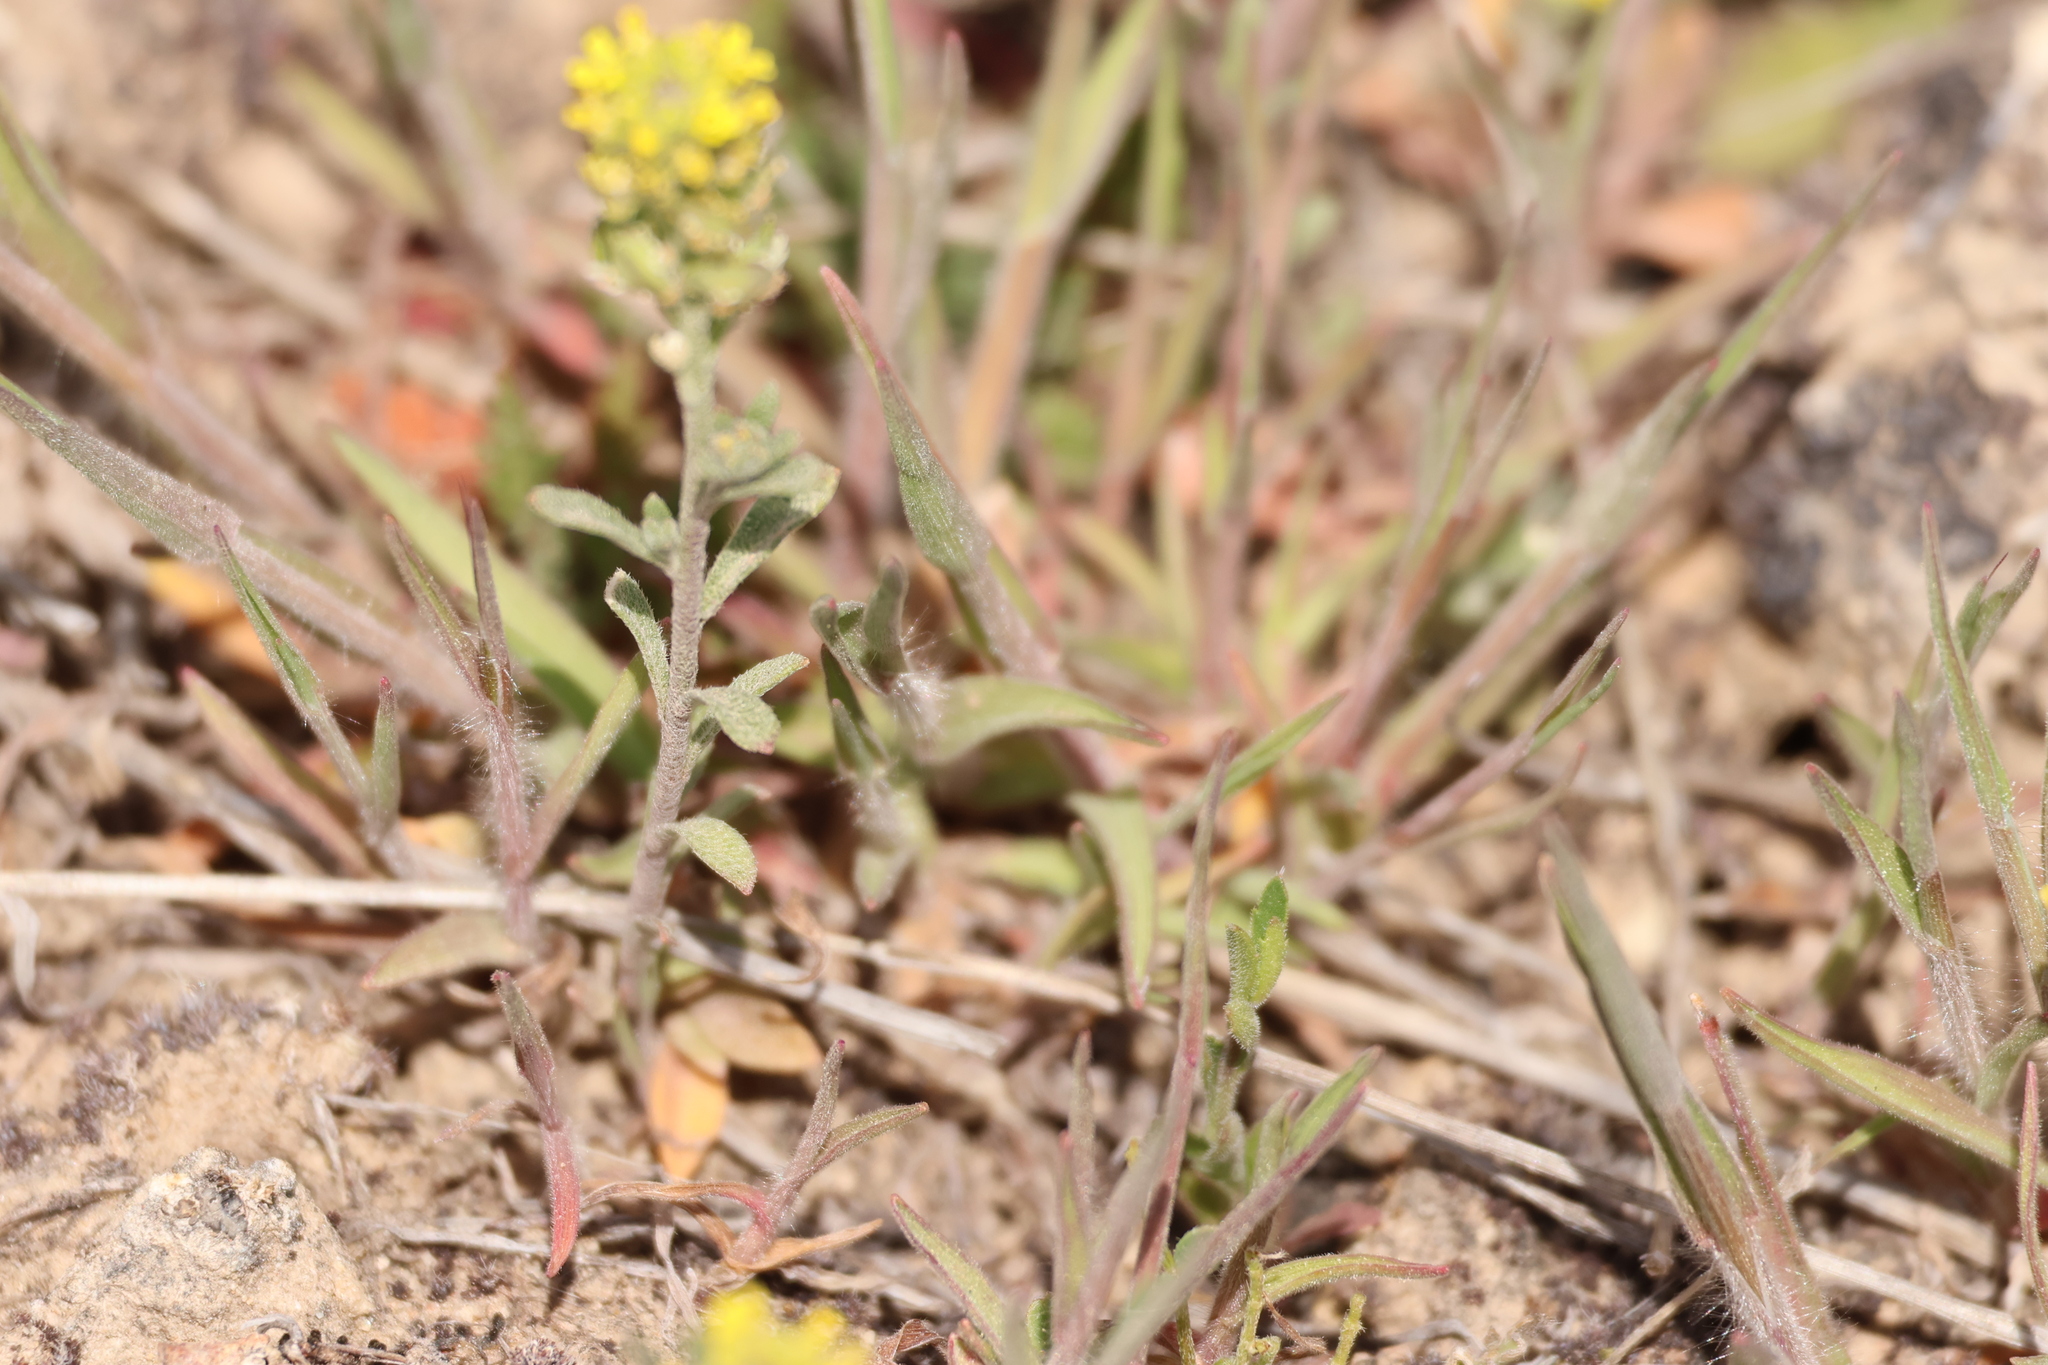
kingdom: Plantae
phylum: Tracheophyta
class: Magnoliopsida
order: Brassicales
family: Brassicaceae
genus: Alyssum
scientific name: Alyssum turkestanicum
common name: Desert alyssum
